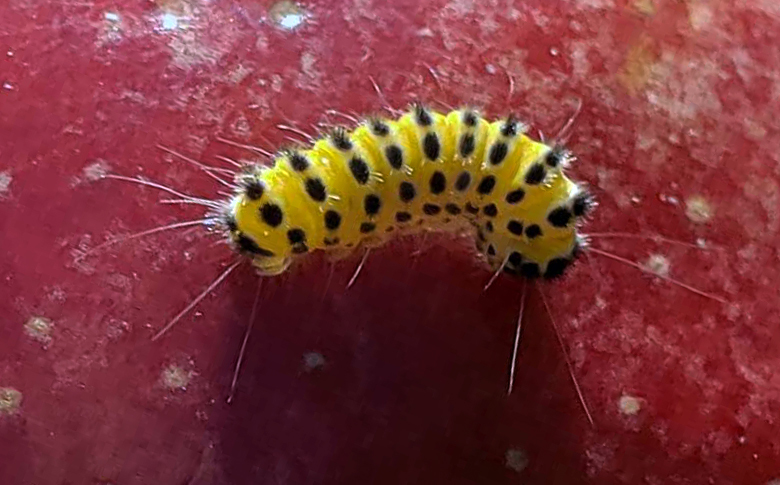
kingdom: Animalia
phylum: Arthropoda
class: Insecta
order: Lepidoptera
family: Zygaenidae
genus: Harrisina
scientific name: Harrisina americana
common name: Grapeleaf skeletonizer moth
